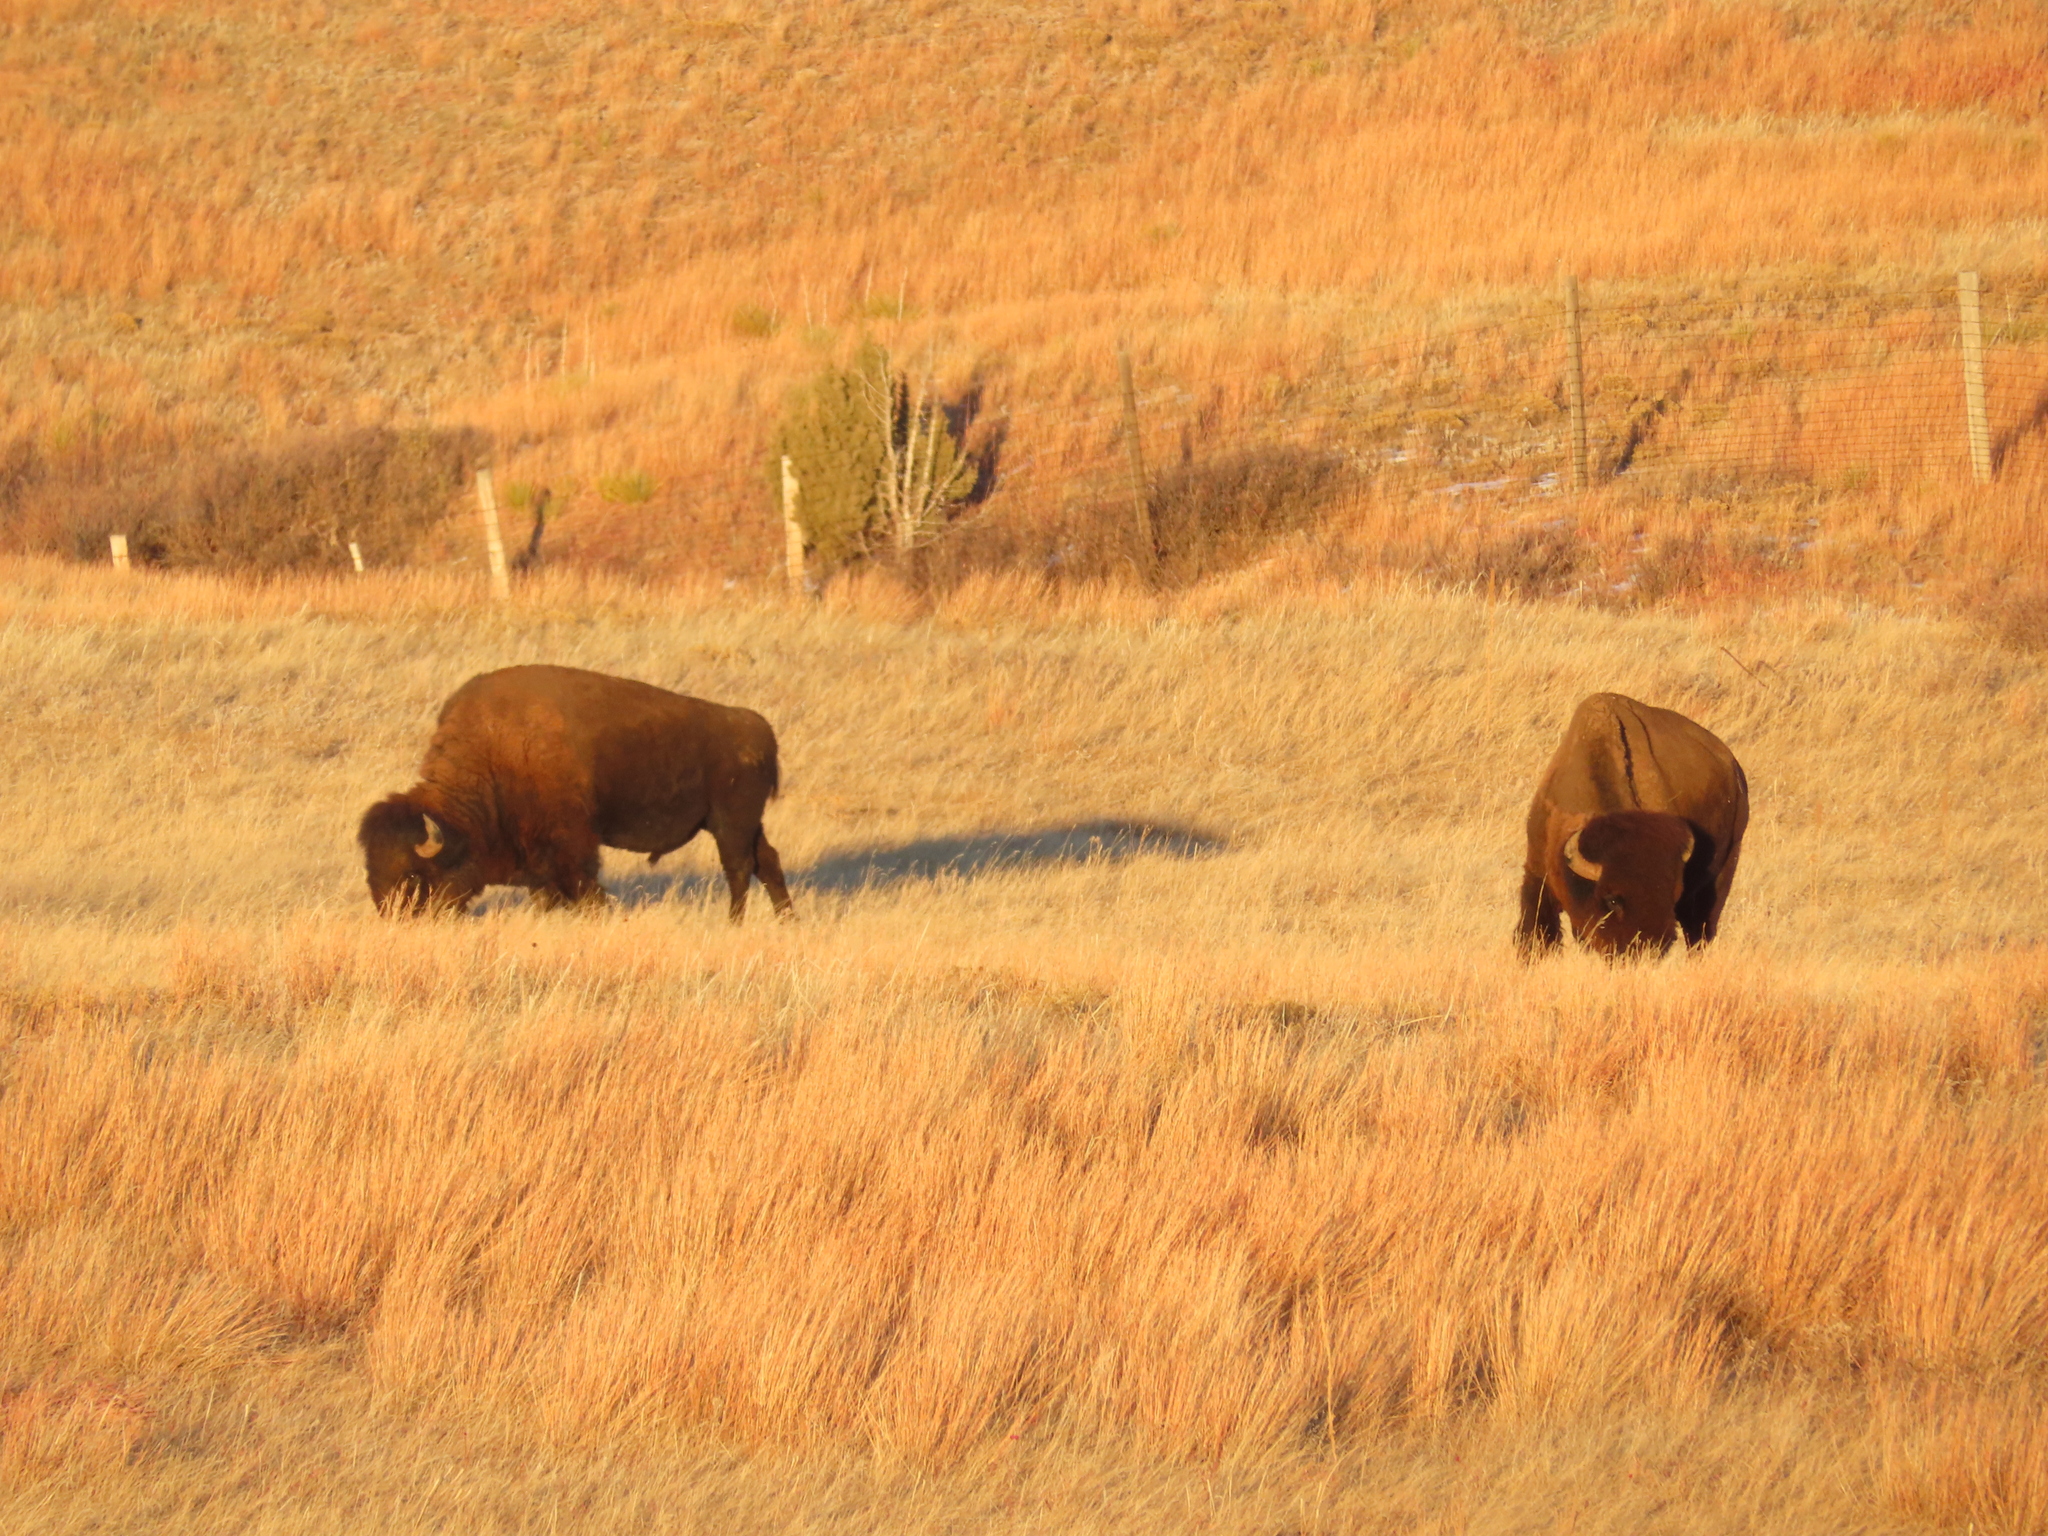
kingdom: Animalia
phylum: Chordata
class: Mammalia
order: Artiodactyla
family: Bovidae
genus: Bison
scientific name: Bison bison
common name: American bison
